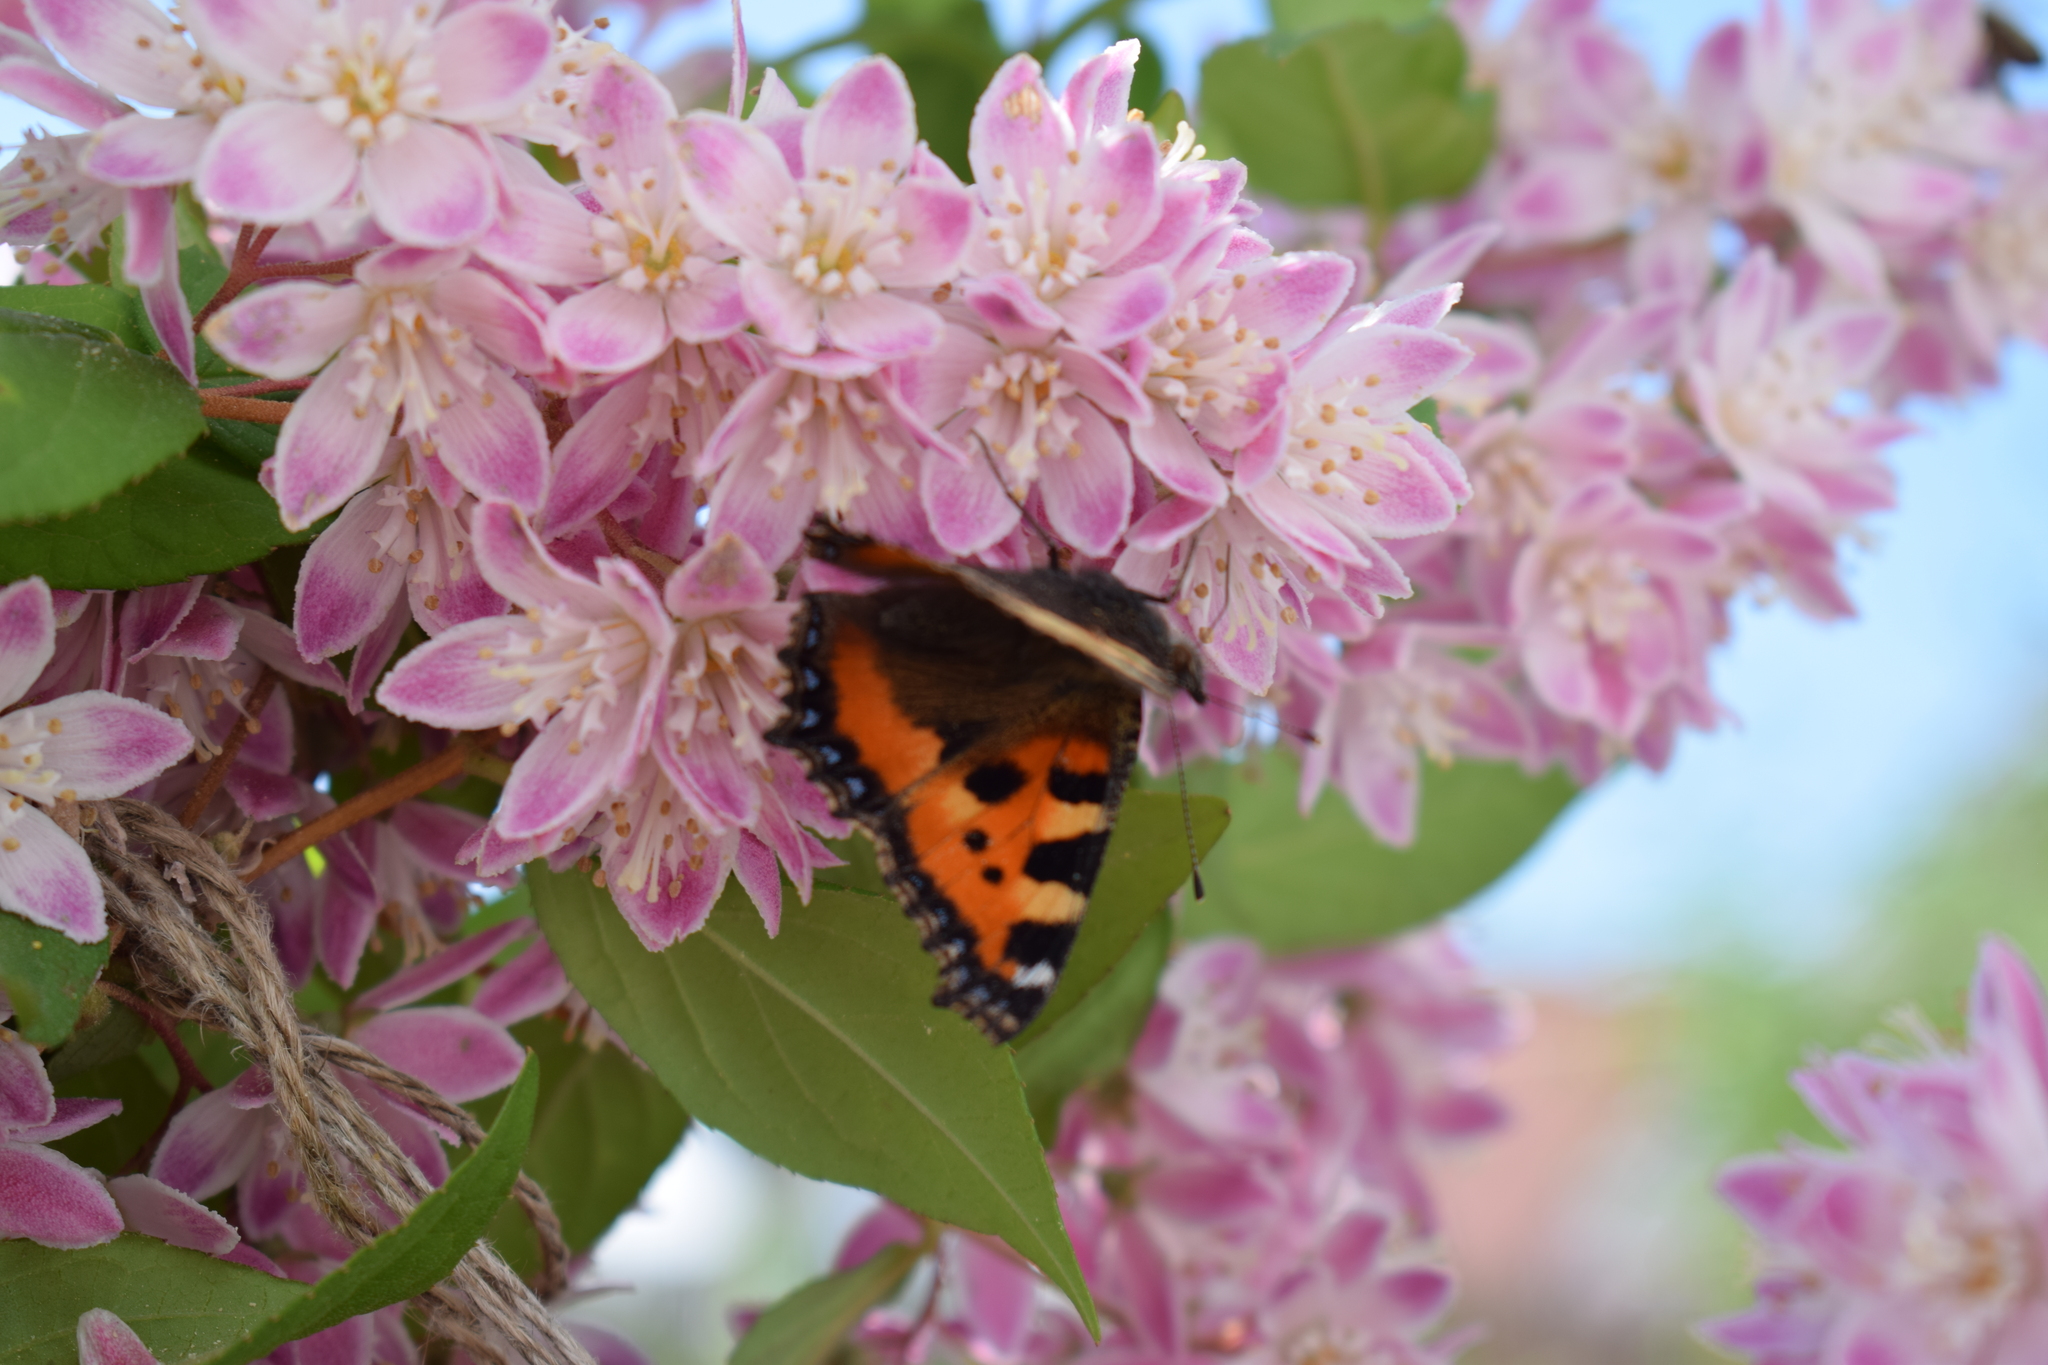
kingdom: Animalia
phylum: Arthropoda
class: Insecta
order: Lepidoptera
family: Nymphalidae
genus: Aglais
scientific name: Aglais urticae
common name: Small tortoiseshell
